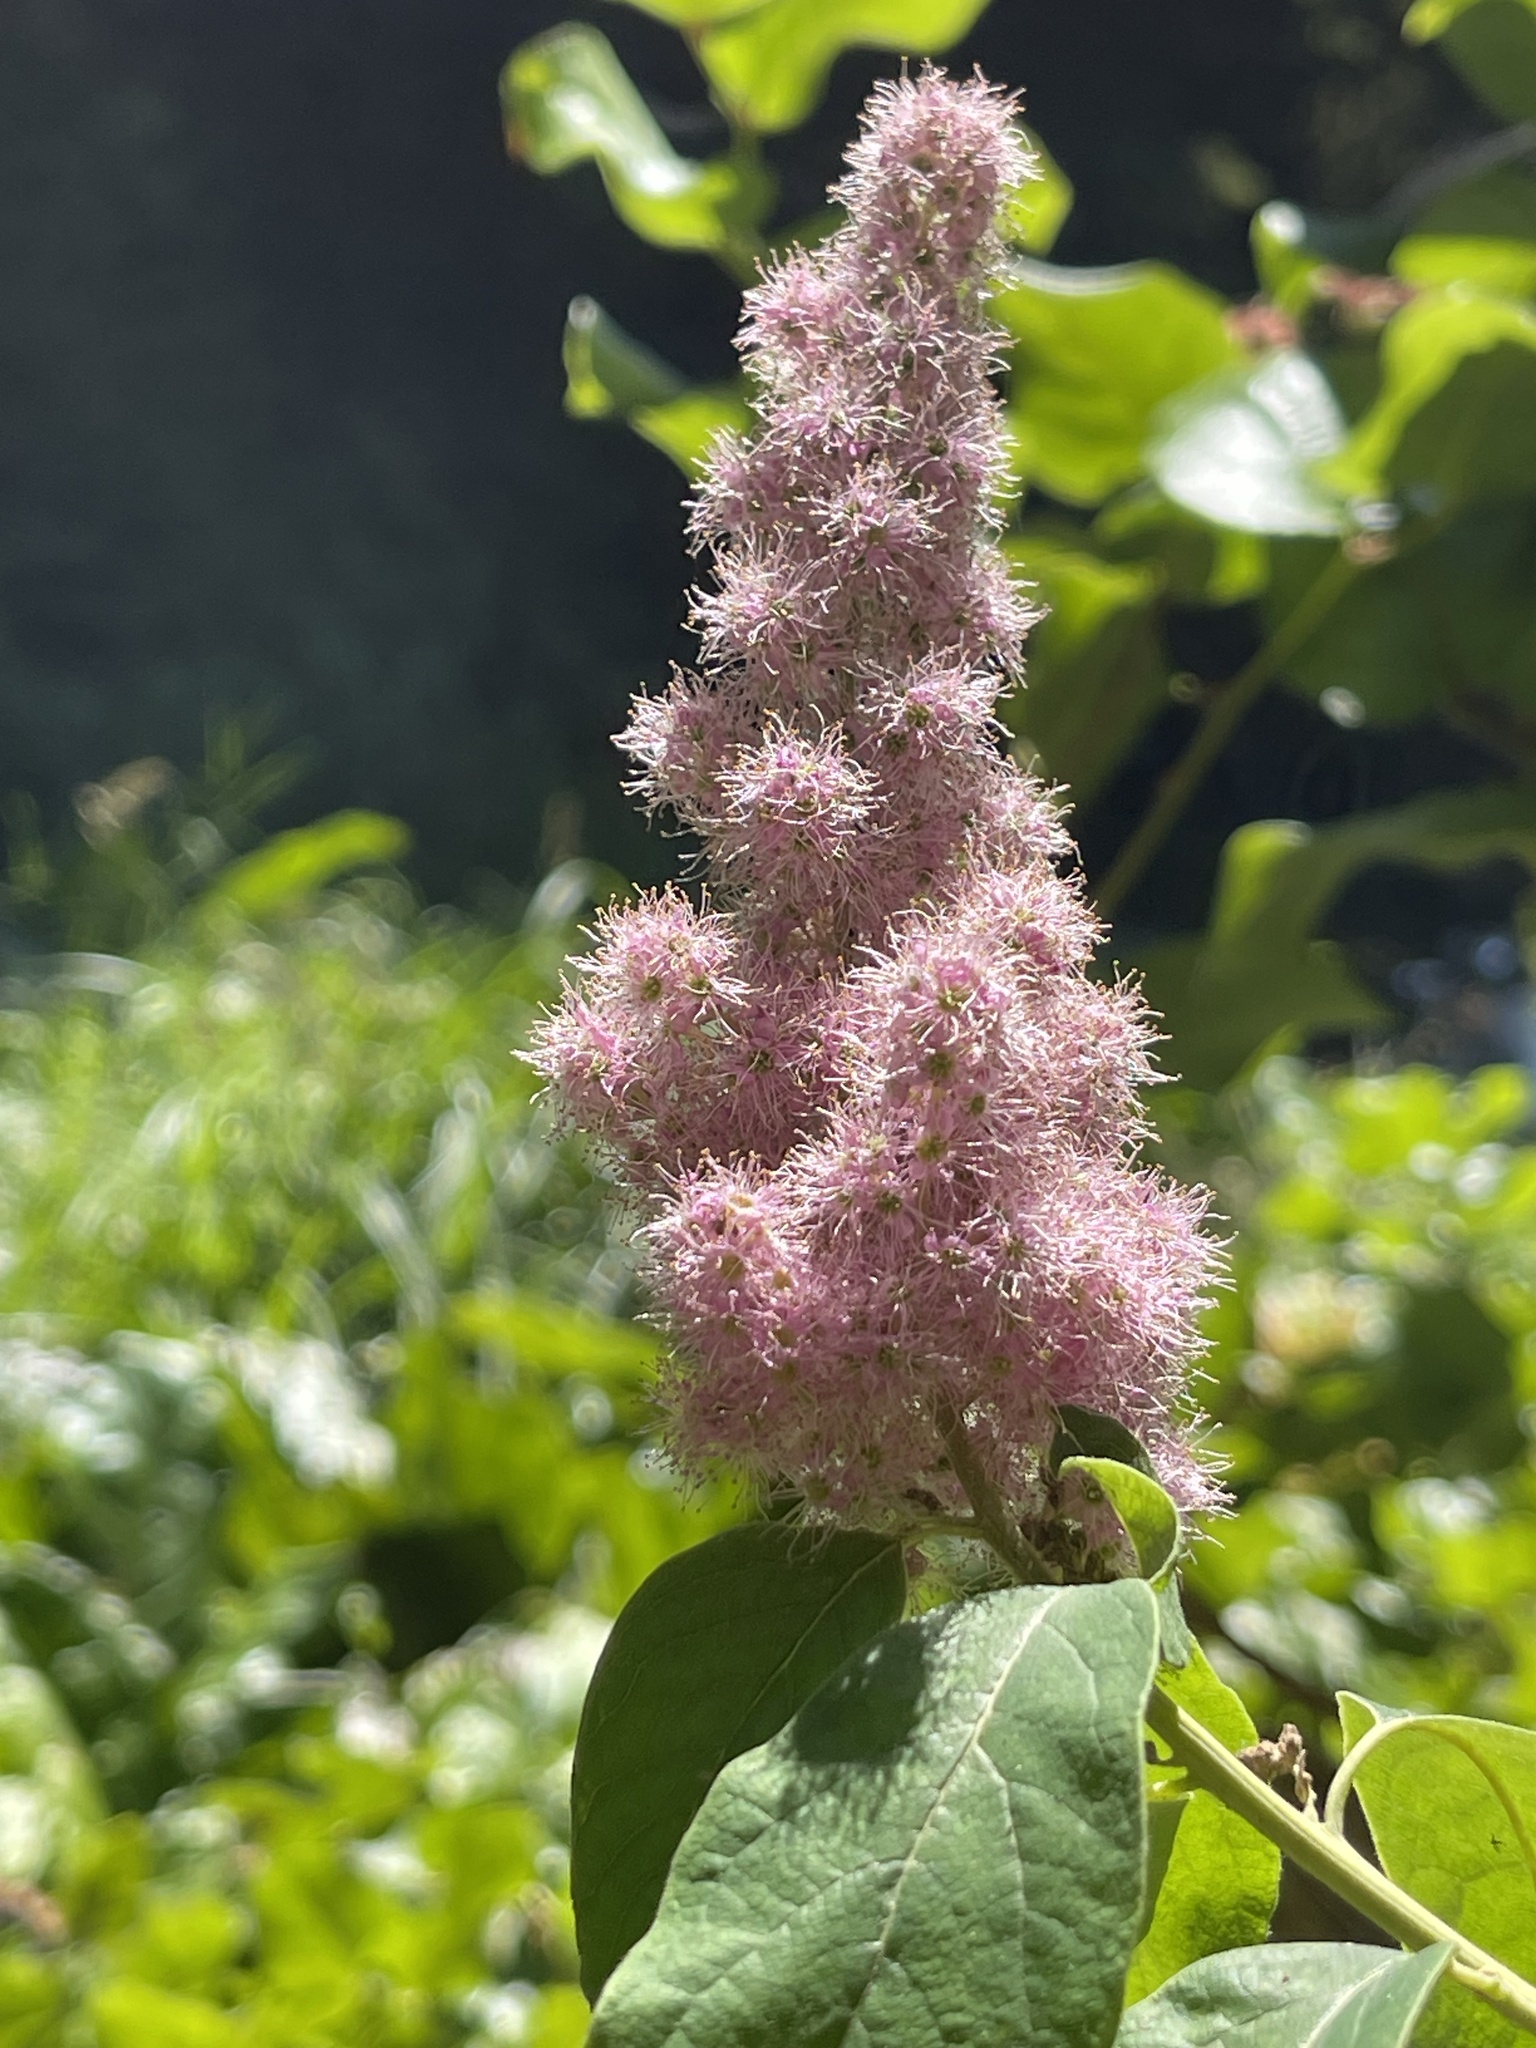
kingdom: Plantae
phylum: Tracheophyta
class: Magnoliopsida
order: Rosales
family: Rosaceae
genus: Spiraea
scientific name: Spiraea douglasii
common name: Steeplebush
